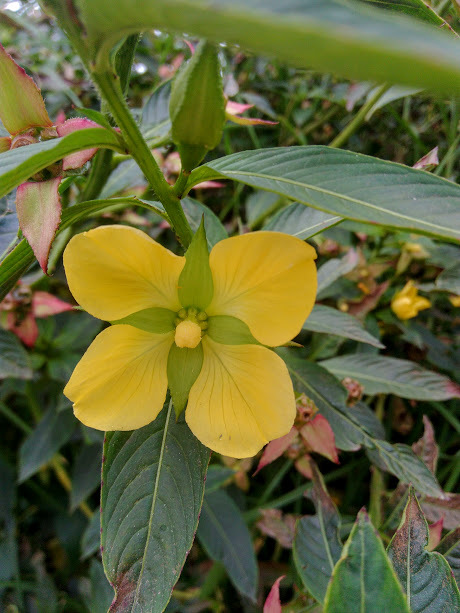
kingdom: Plantae
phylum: Tracheophyta
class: Magnoliopsida
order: Myrtales
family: Onagraceae
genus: Ludwigia
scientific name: Ludwigia peruviana
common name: Peruvian primrose-willow
